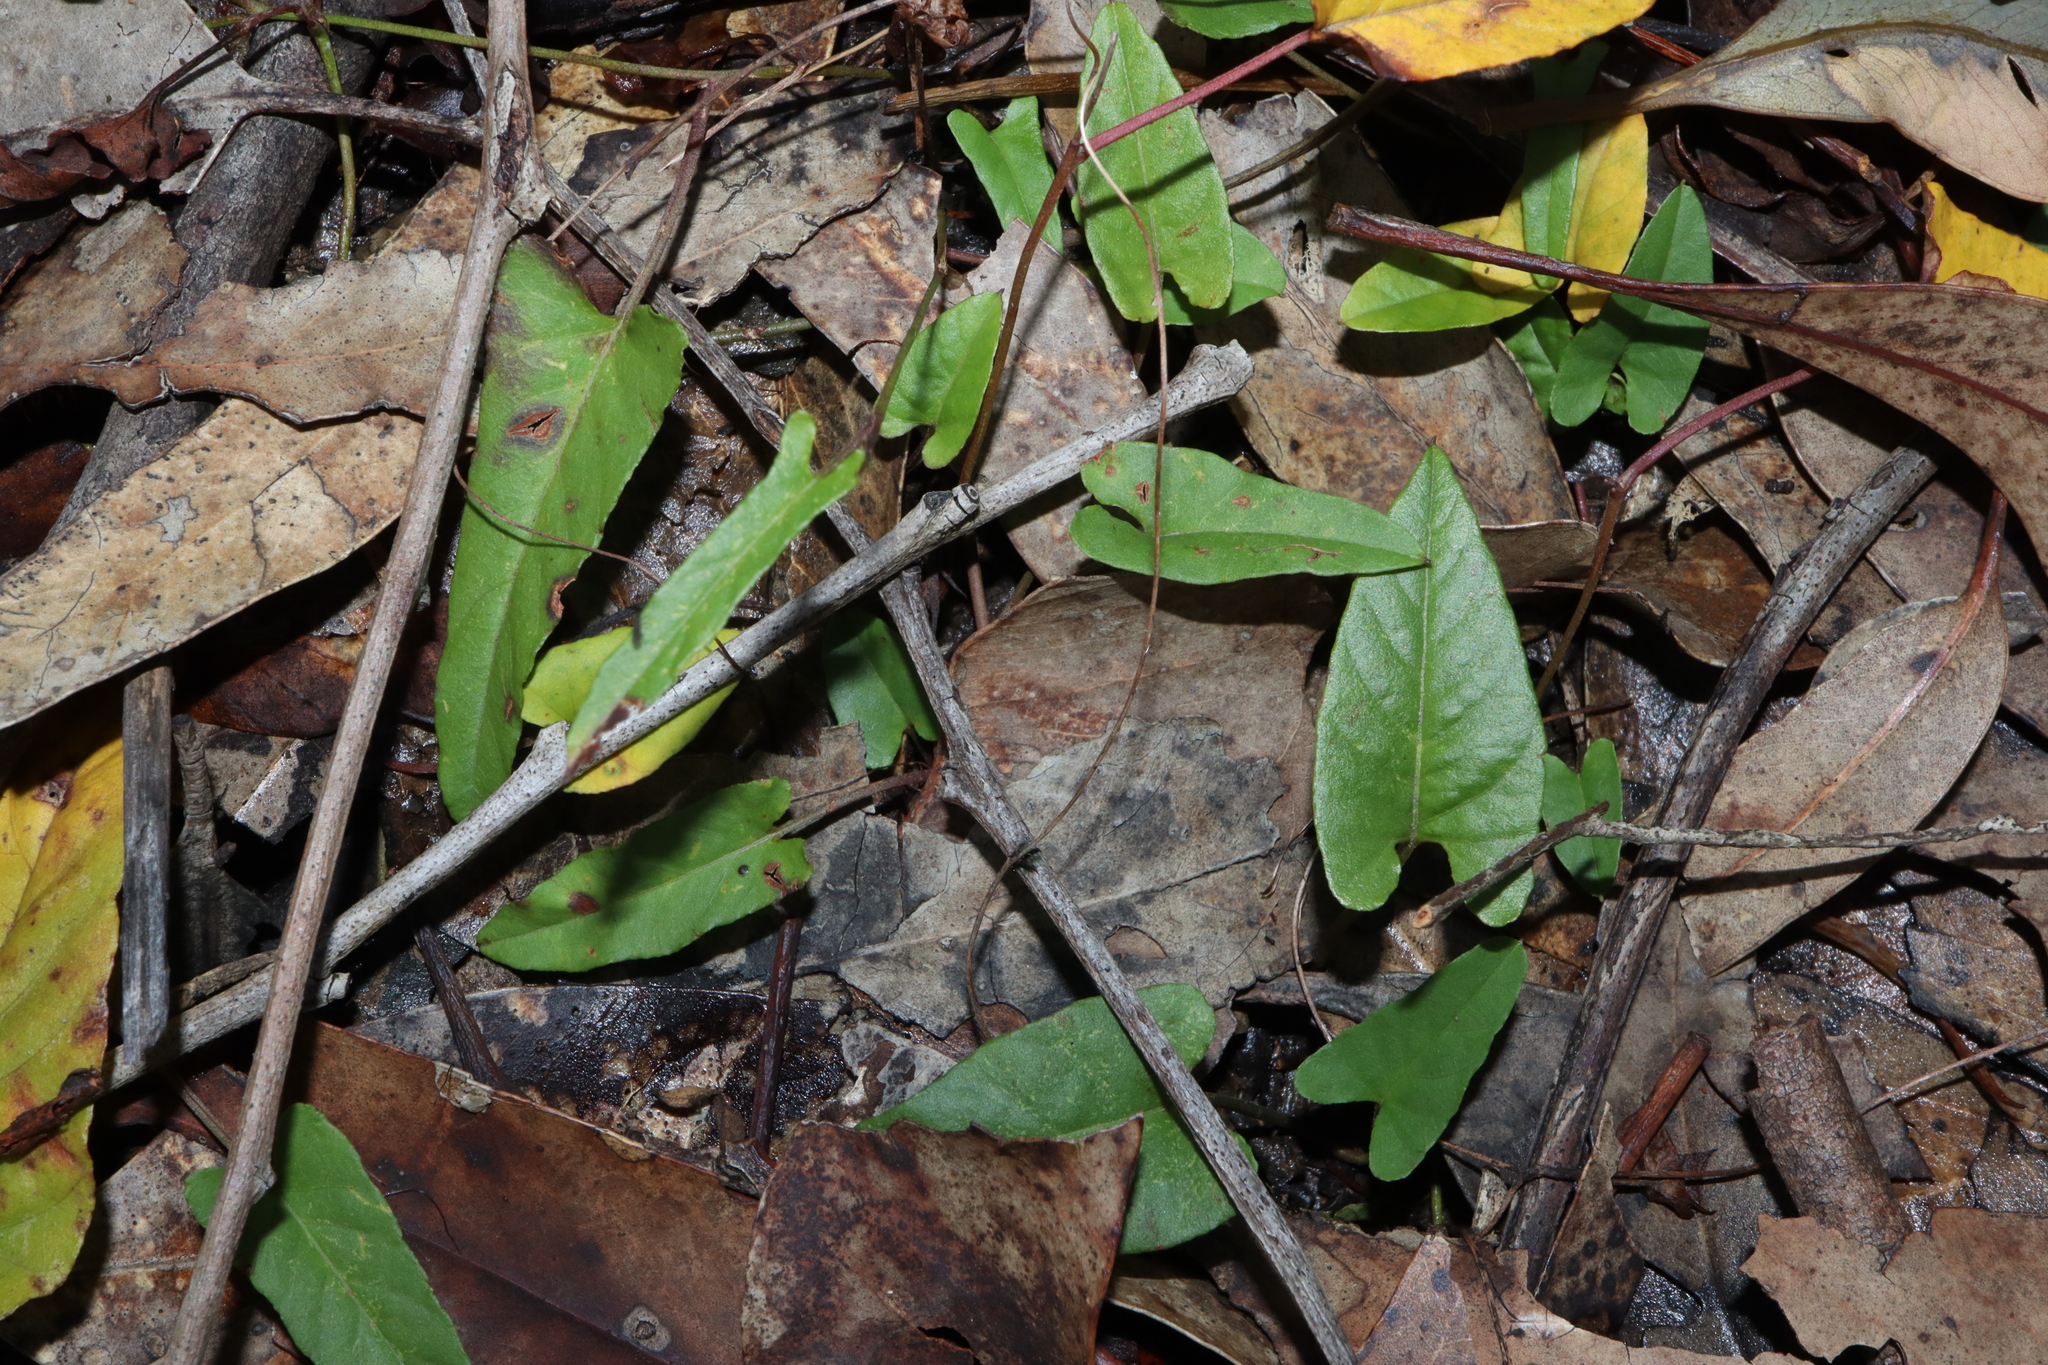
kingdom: Plantae
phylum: Tracheophyta
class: Magnoliopsida
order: Solanales
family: Convolvulaceae
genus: Polymeria
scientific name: Polymeria calycina
